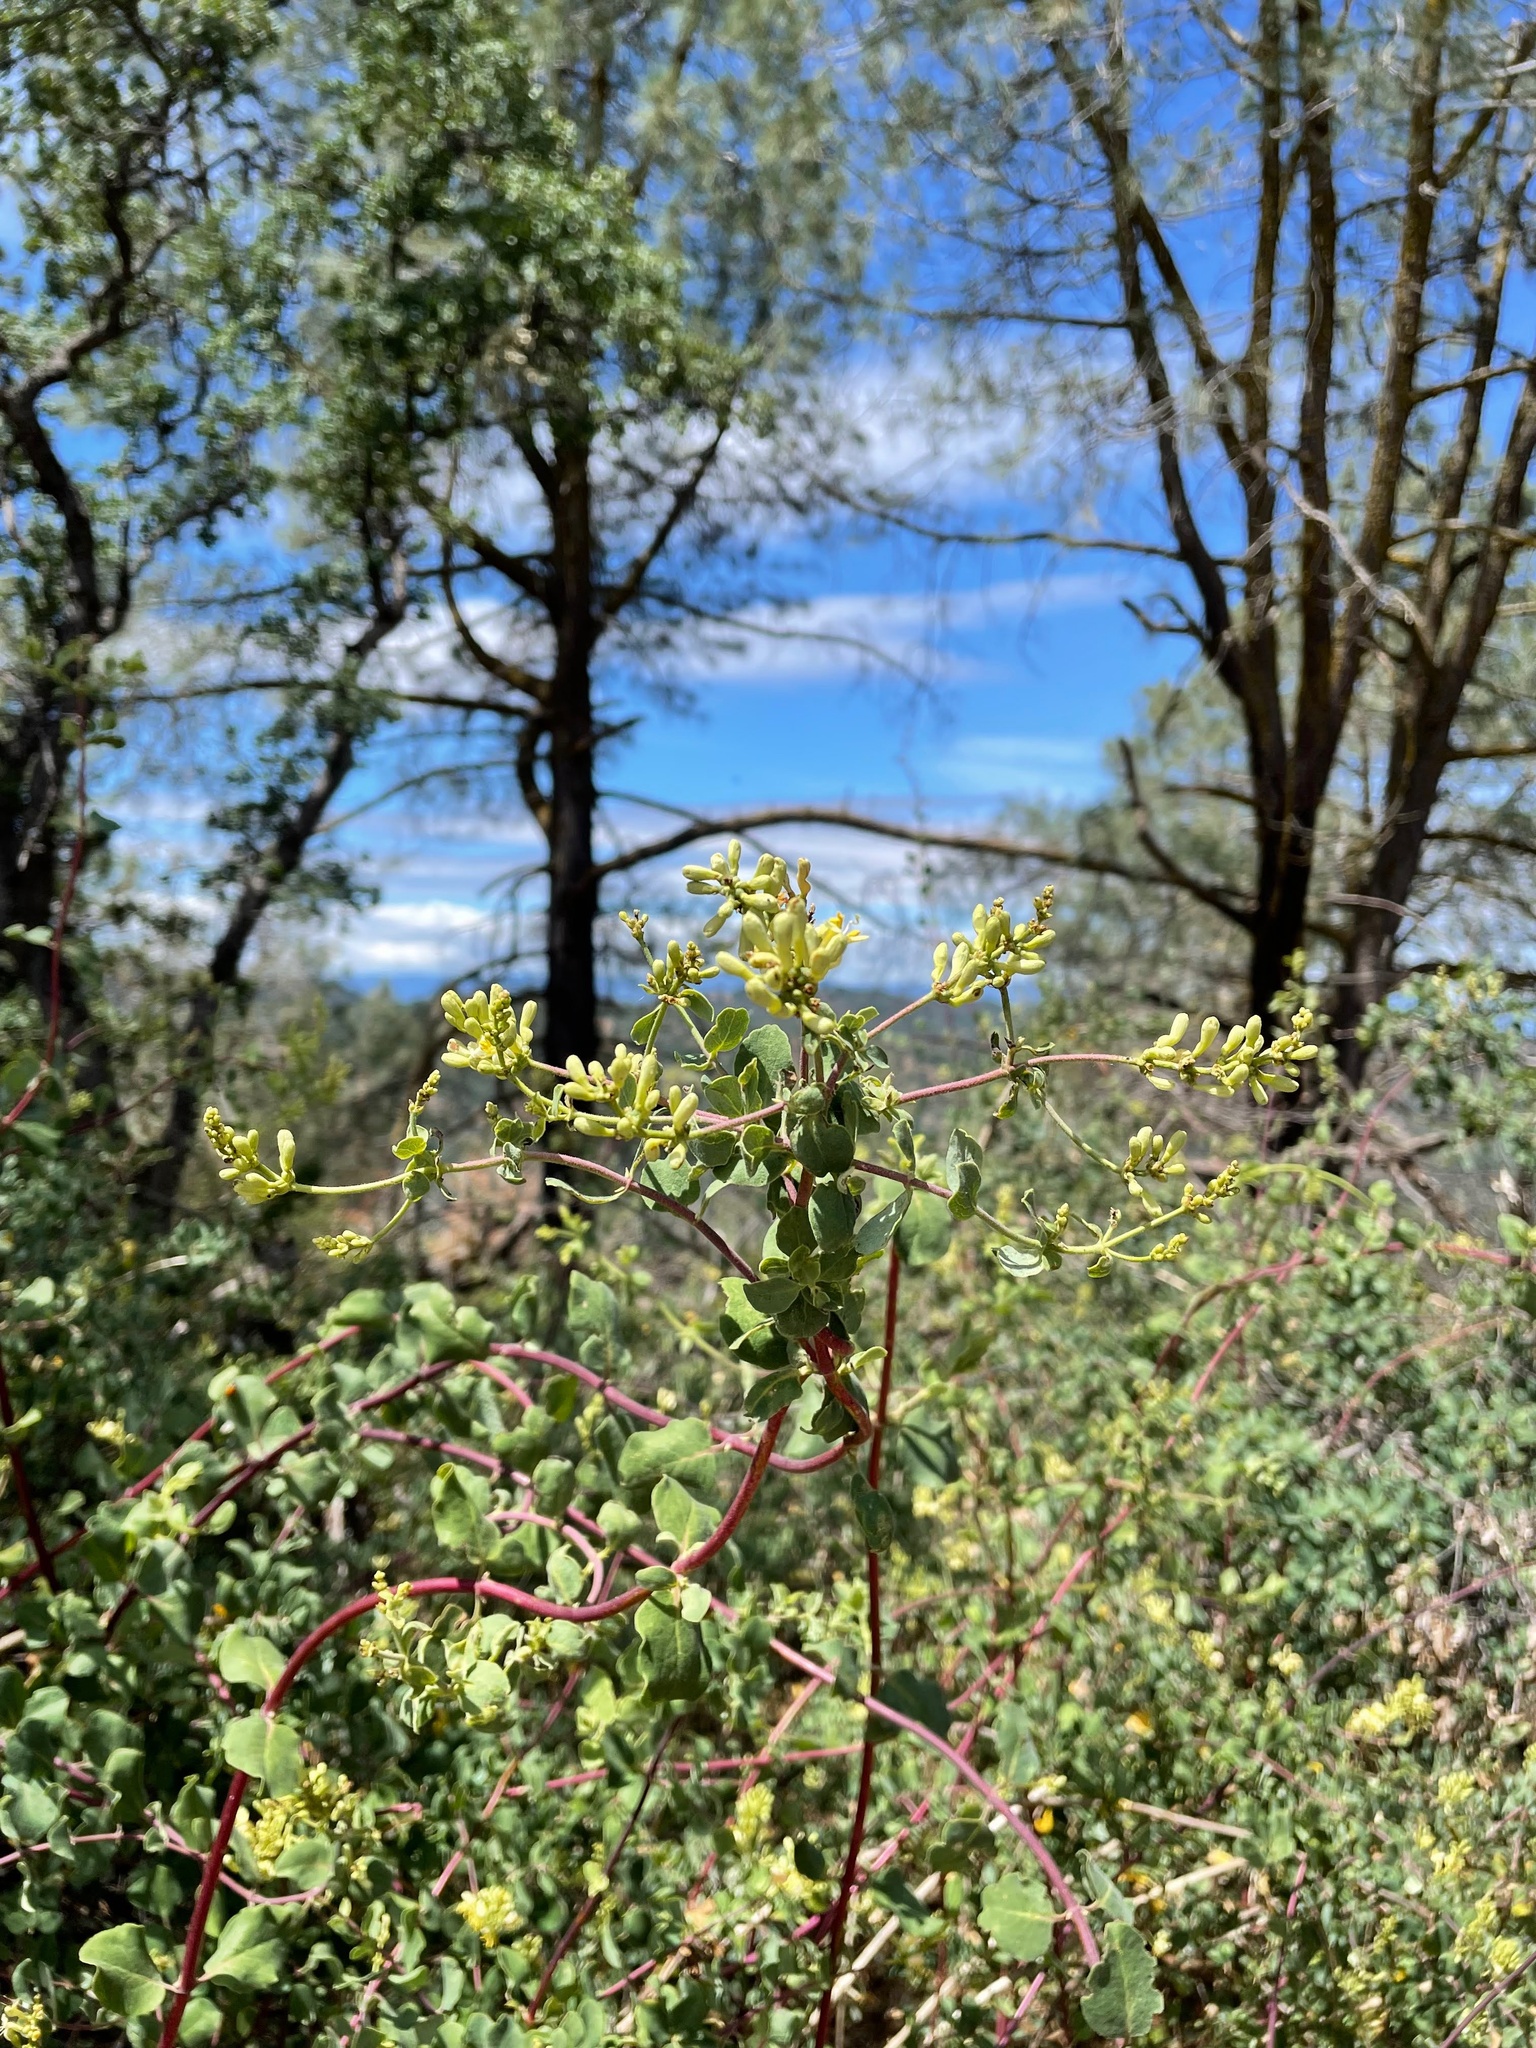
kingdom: Plantae
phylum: Tracheophyta
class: Magnoliopsida
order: Dipsacales
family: Caprifoliaceae
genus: Lonicera
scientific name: Lonicera subspicata
